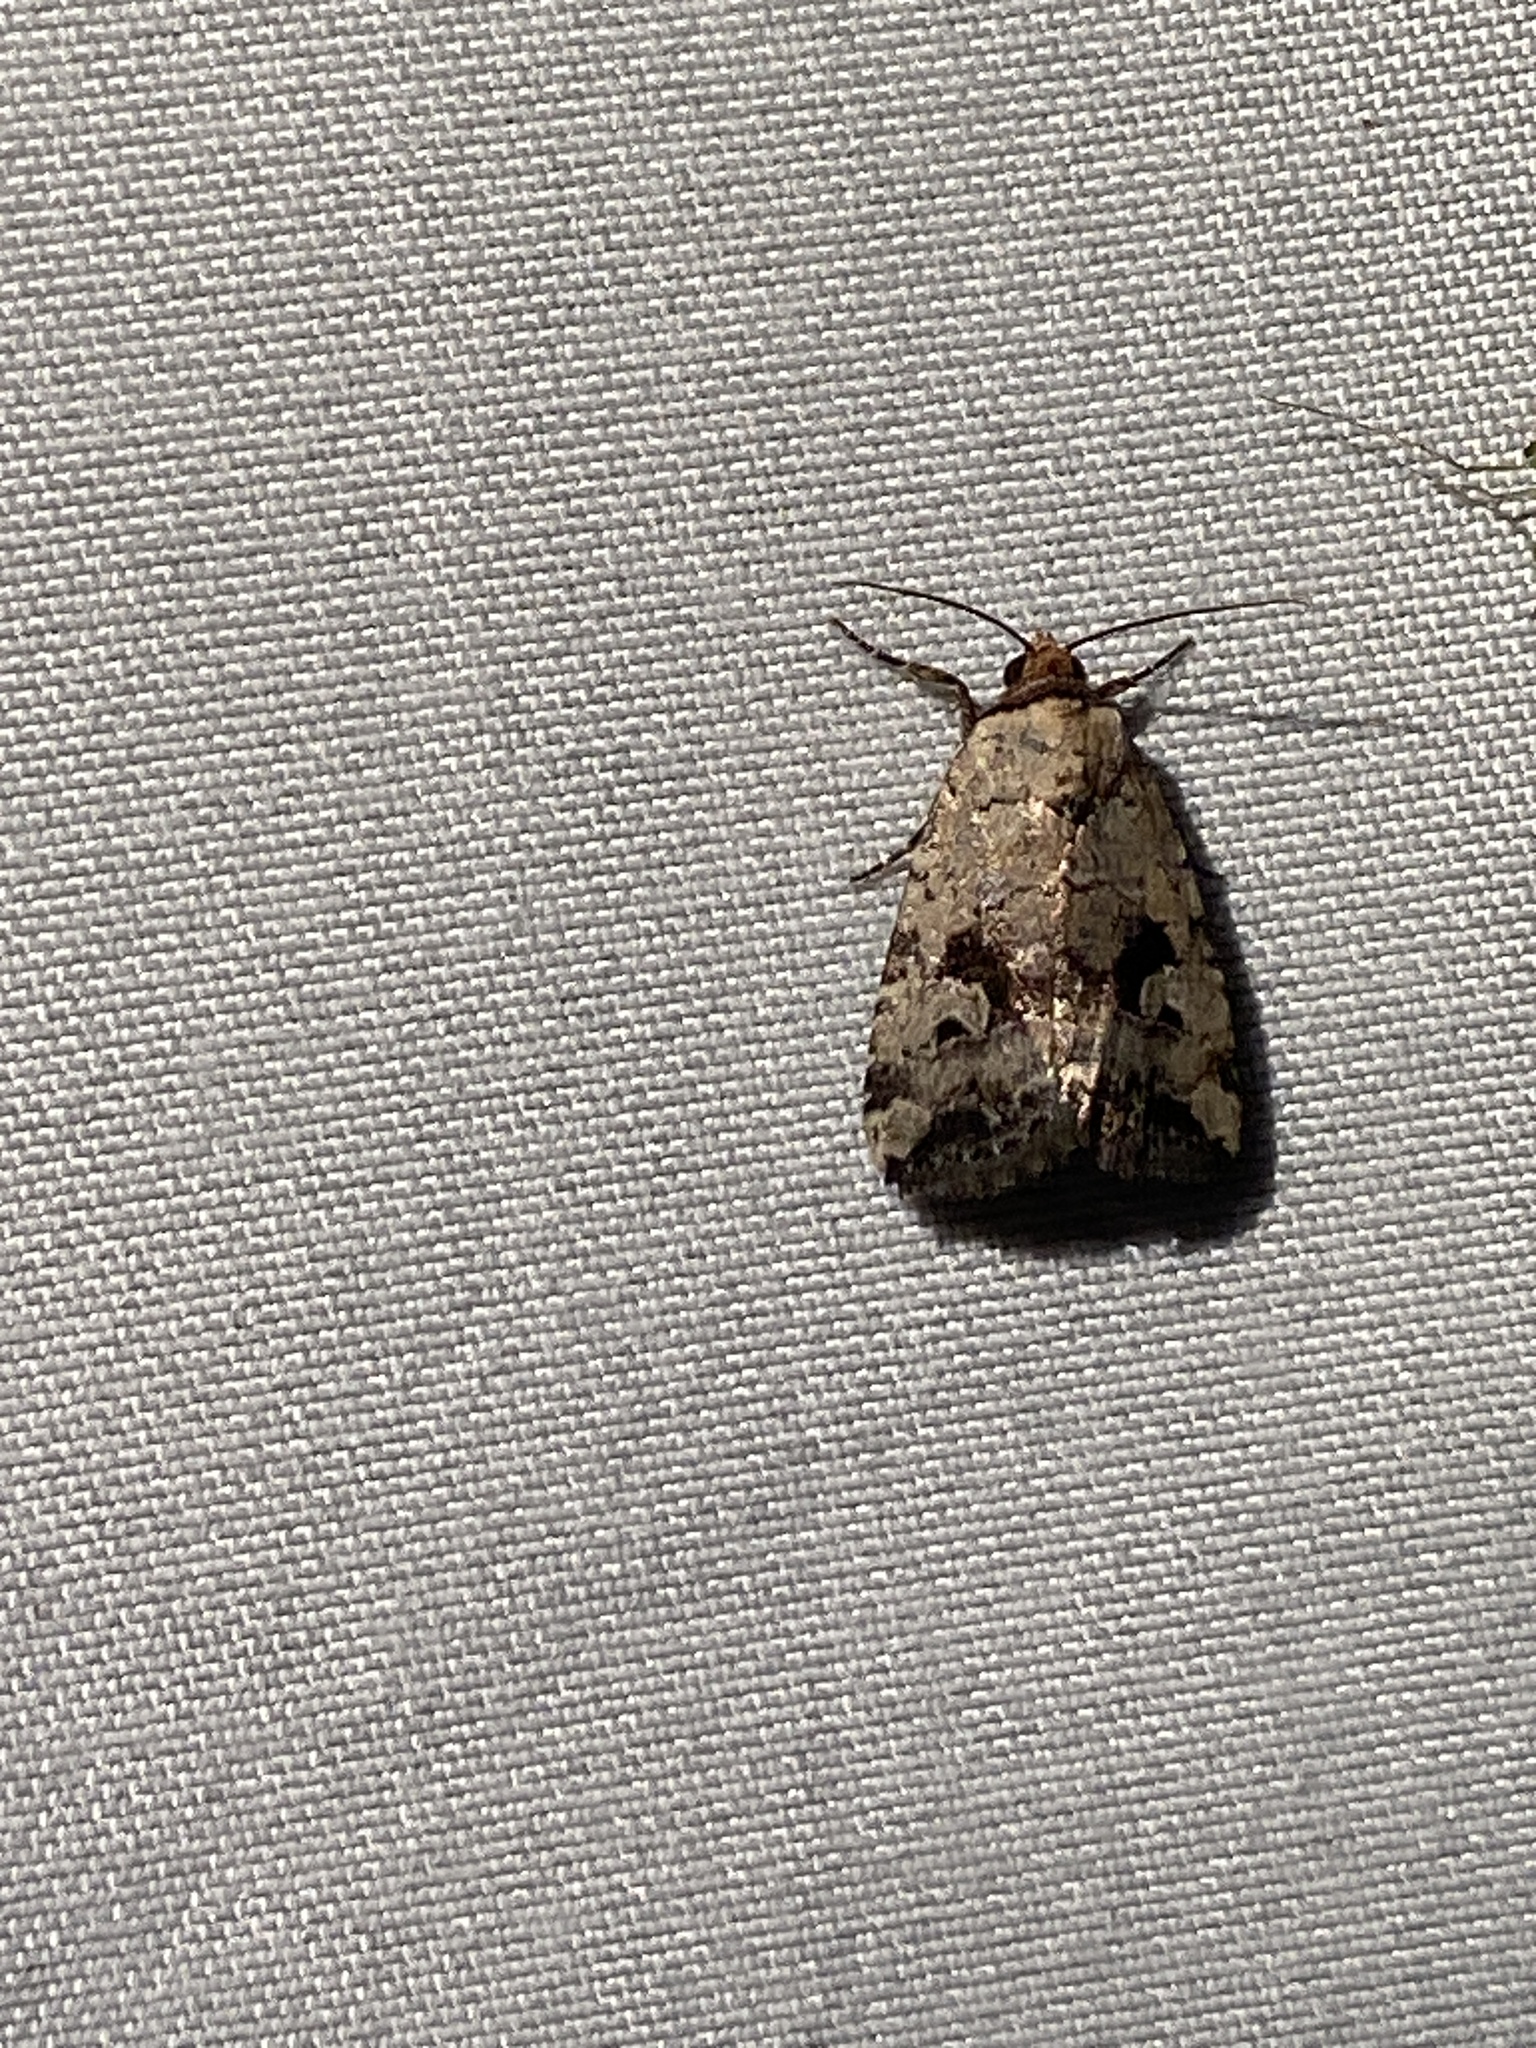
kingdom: Animalia
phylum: Arthropoda
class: Insecta
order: Lepidoptera
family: Noctuidae
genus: Elaphria
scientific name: Elaphria festivoides
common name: Festive midget
